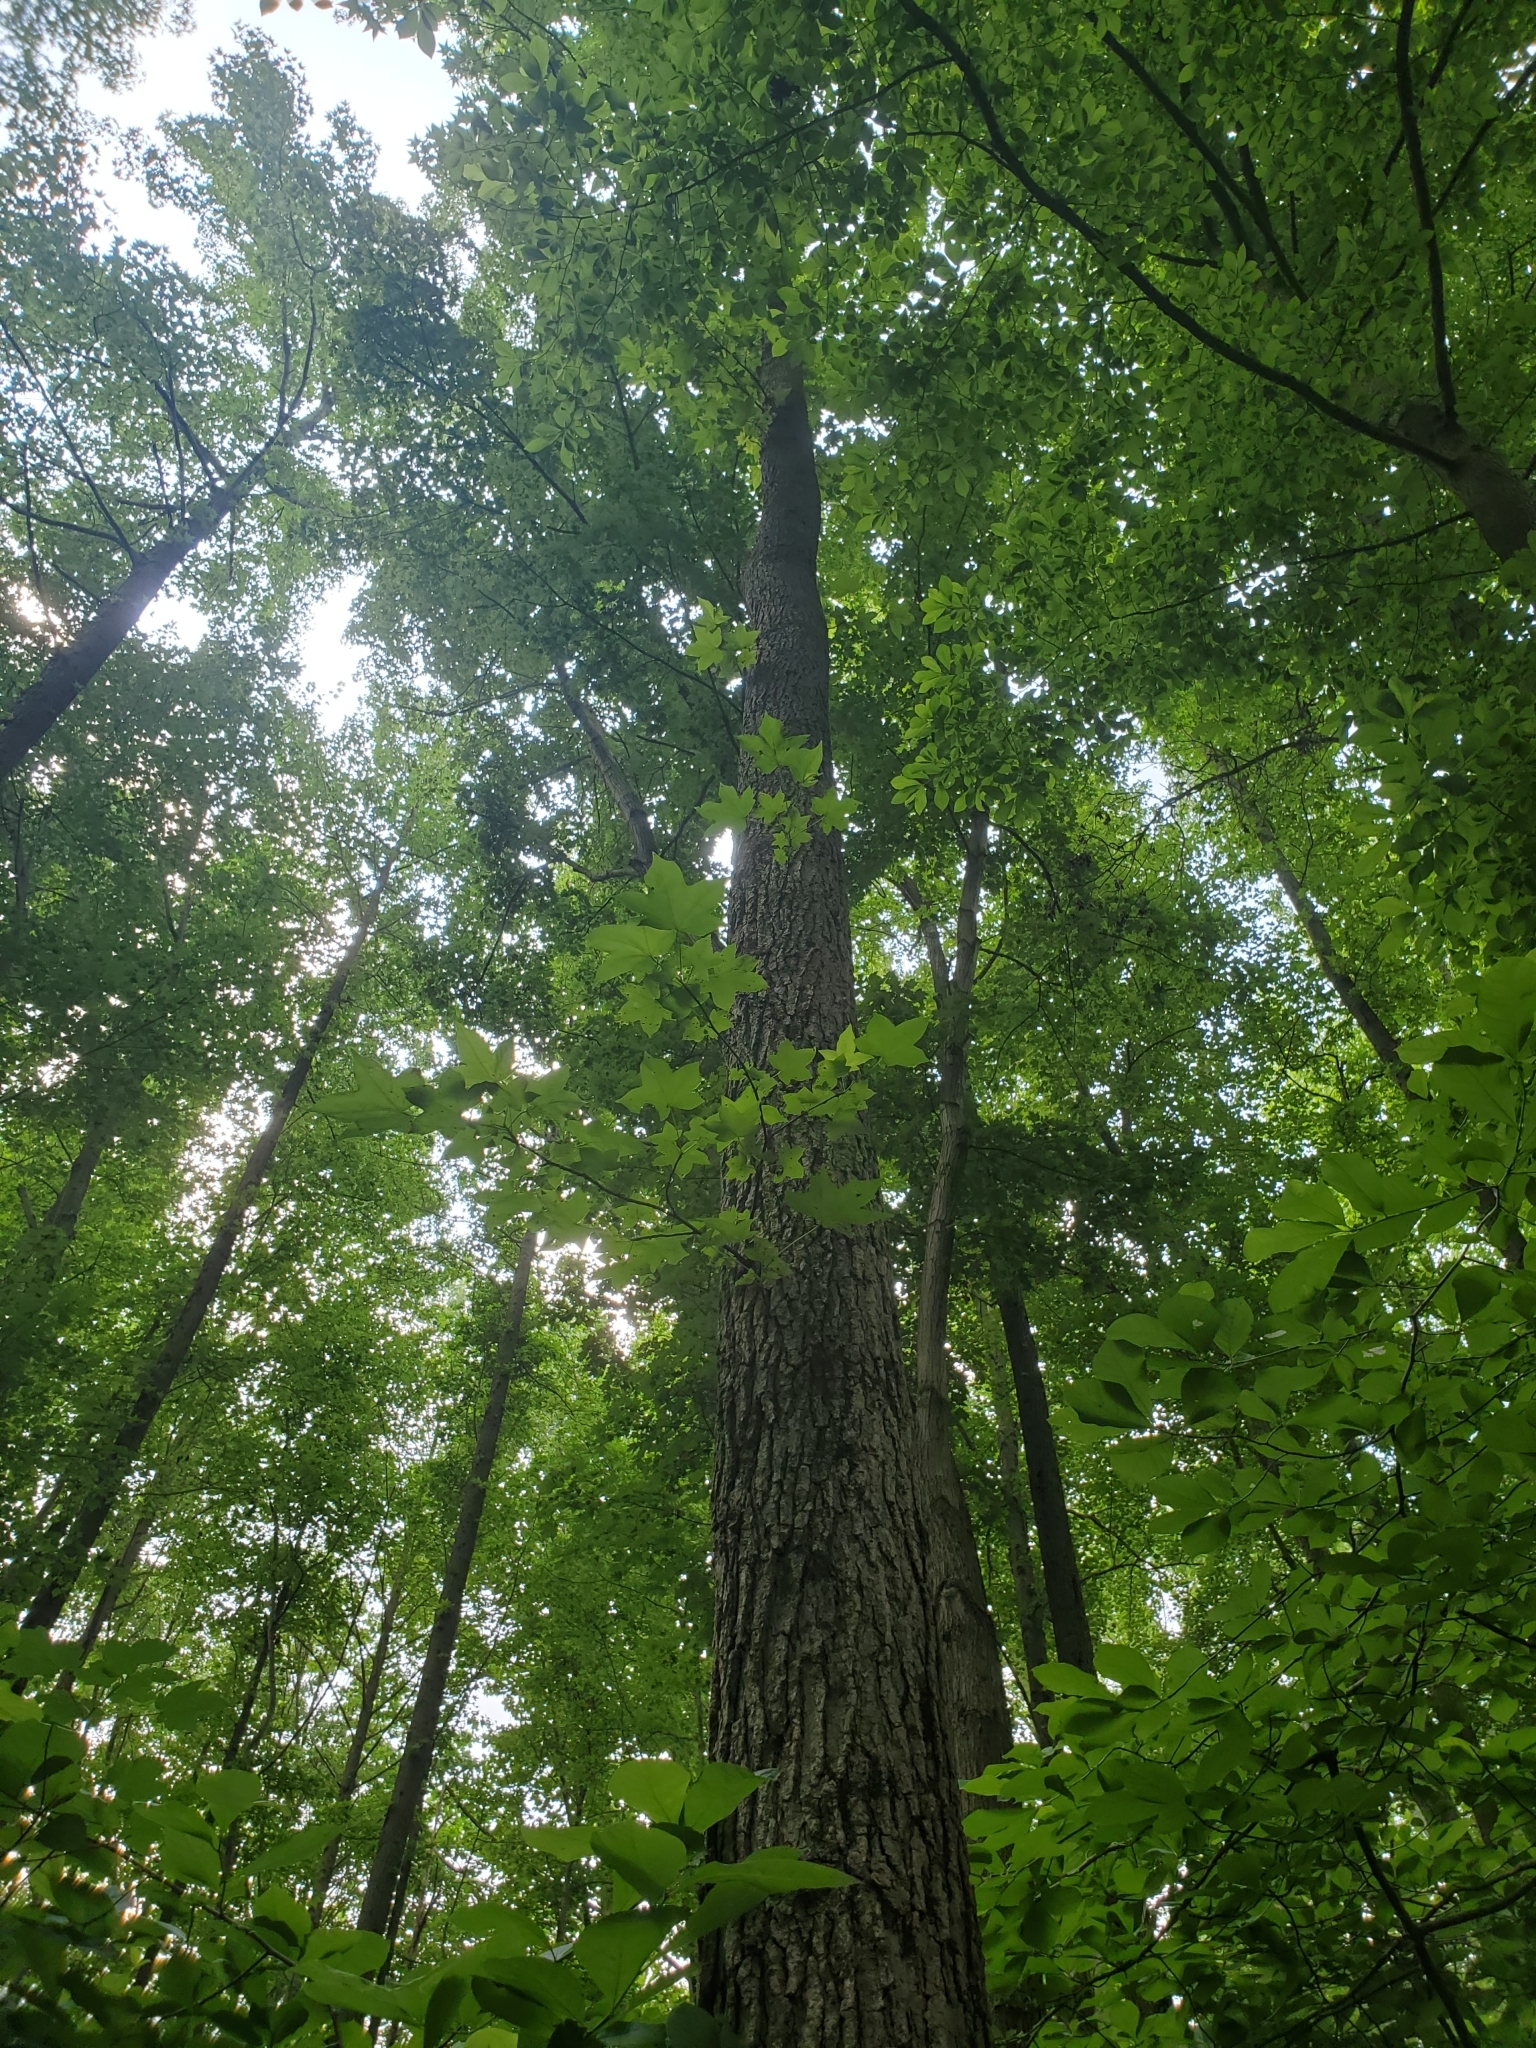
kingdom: Plantae
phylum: Tracheophyta
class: Magnoliopsida
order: Saxifragales
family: Altingiaceae
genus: Liquidambar
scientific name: Liquidambar styraciflua
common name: Sweet gum
